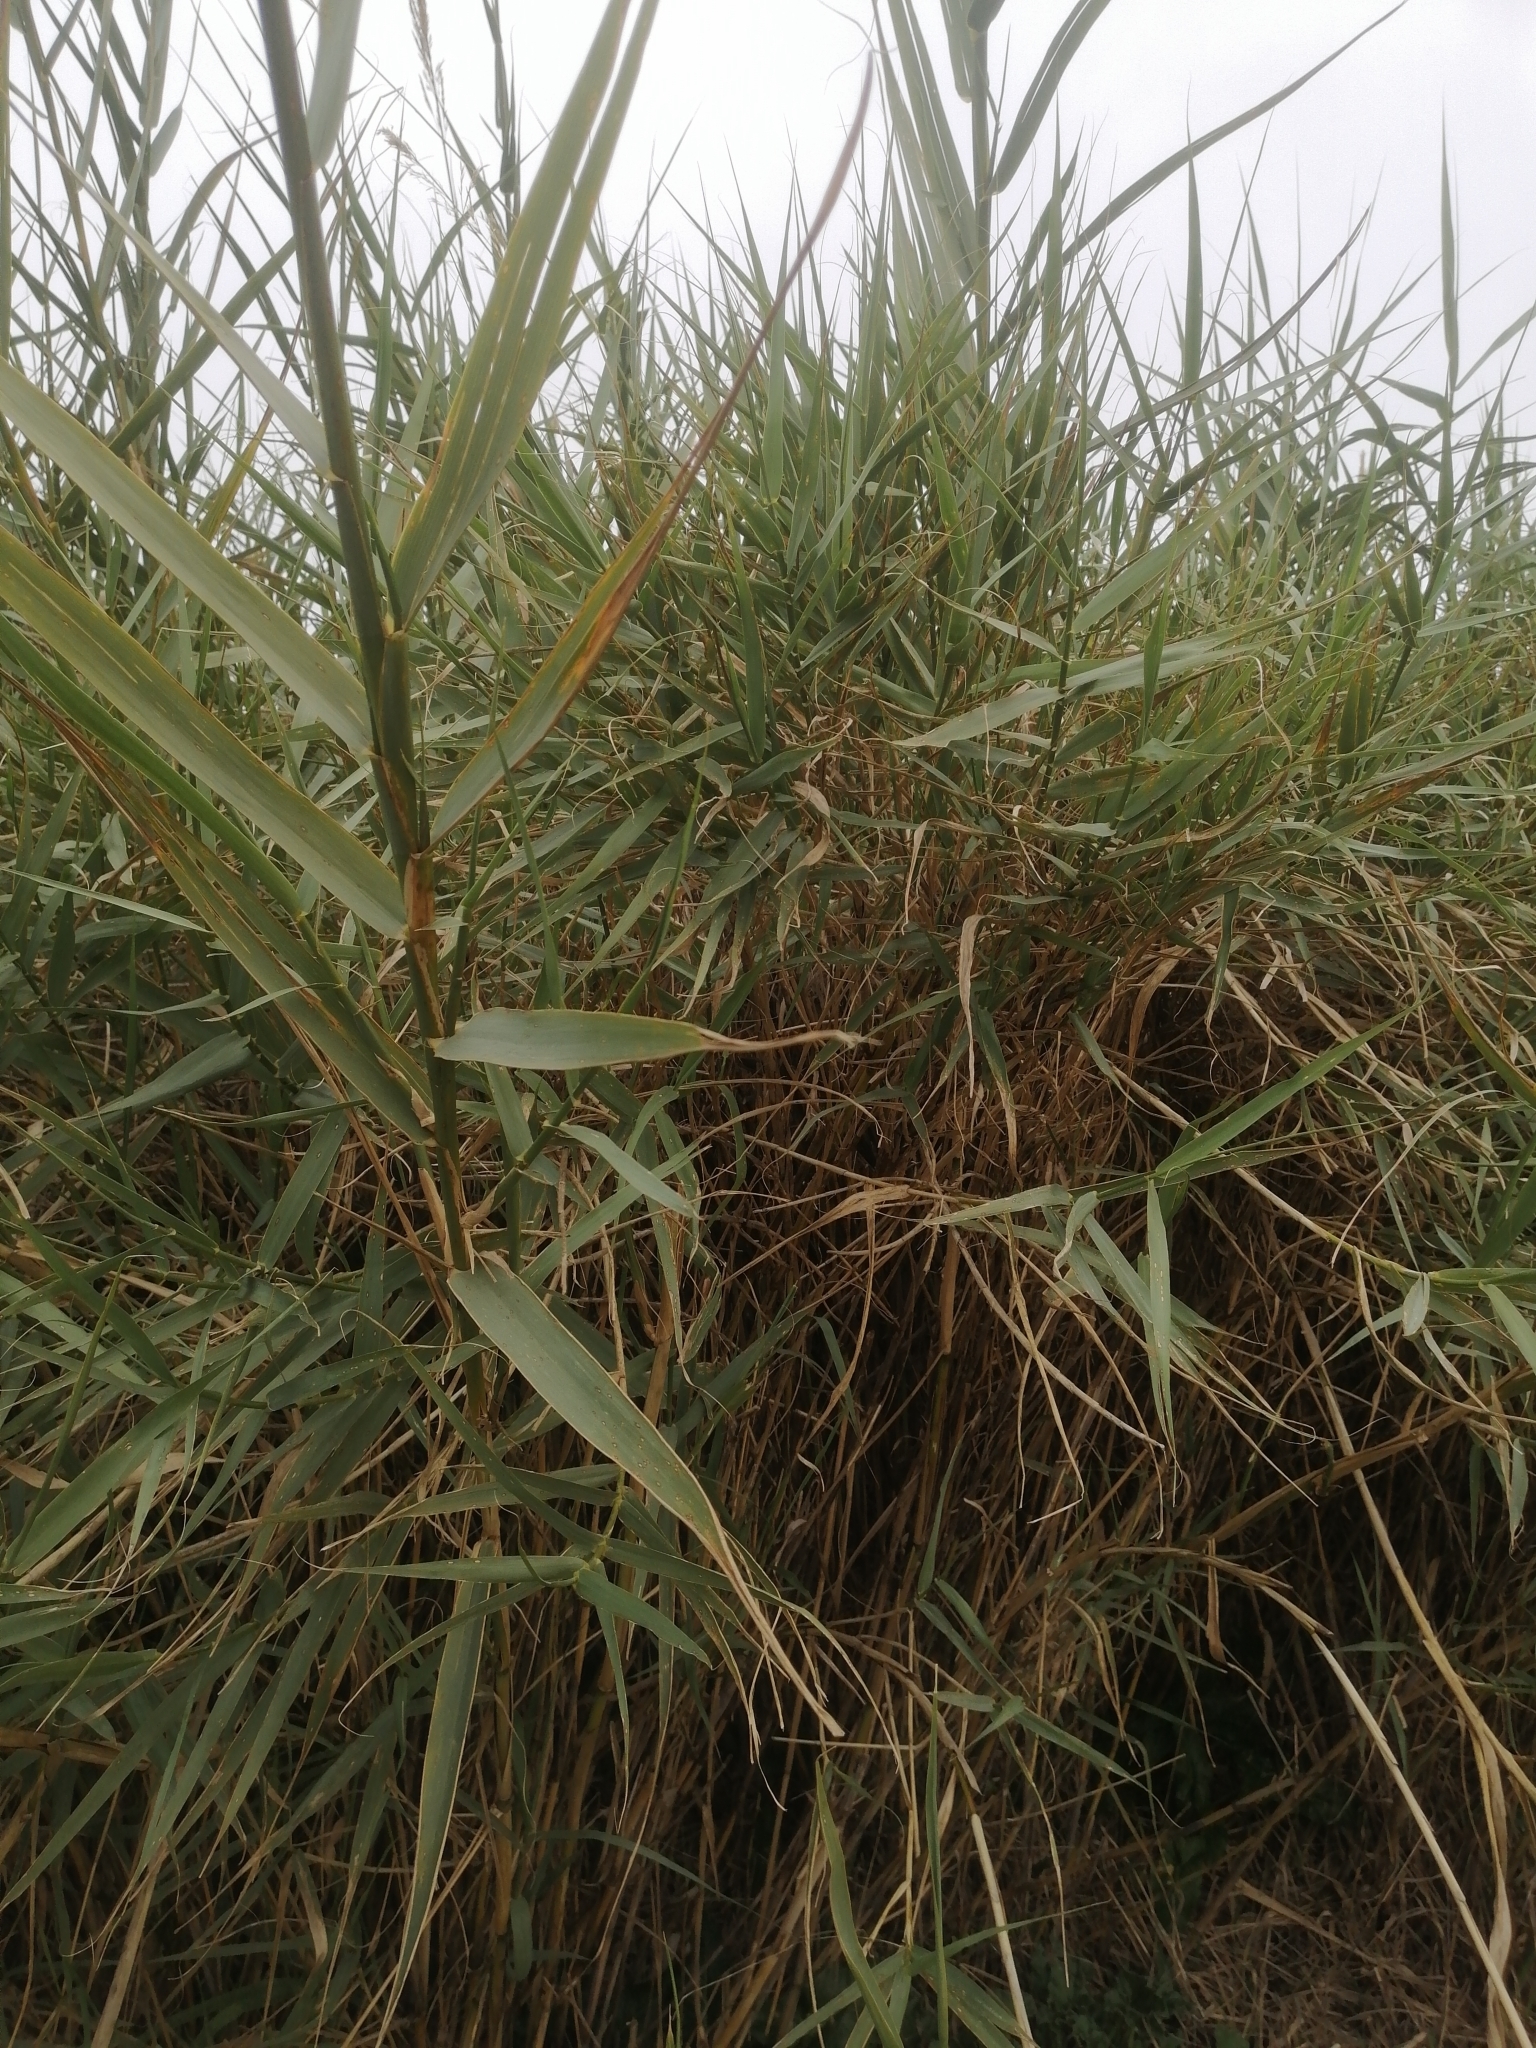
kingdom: Plantae
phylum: Tracheophyta
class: Liliopsida
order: Poales
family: Poaceae
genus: Arundo
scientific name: Arundo donax
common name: Giant reed
